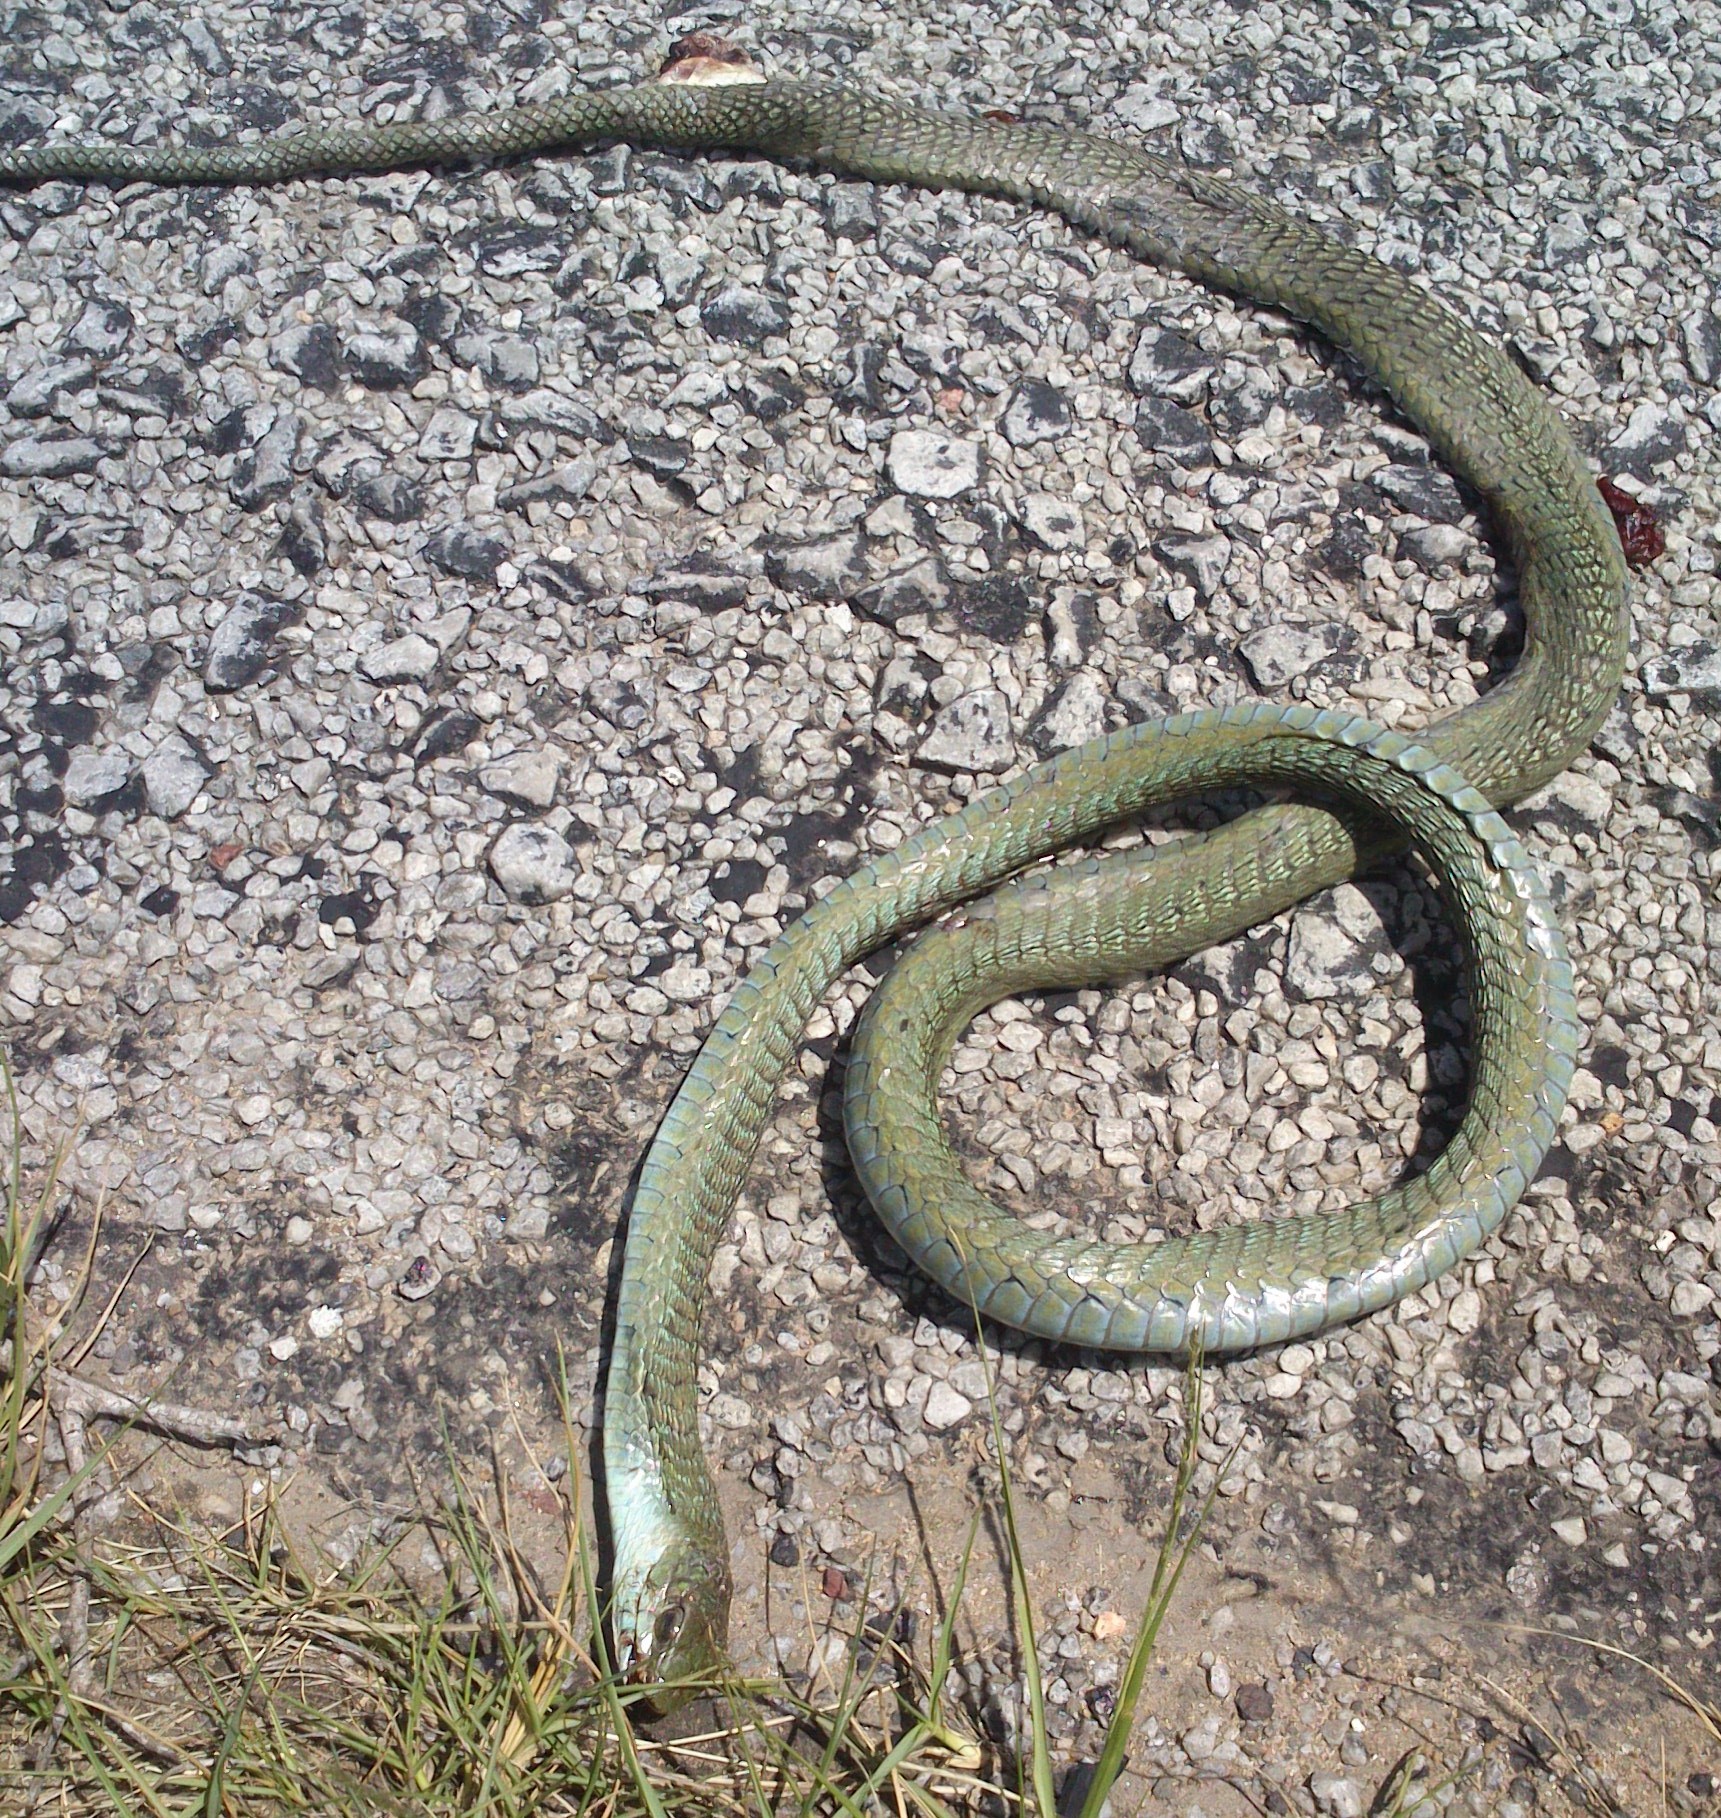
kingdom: Animalia
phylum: Chordata
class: Squamata
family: Colubridae
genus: Dispholidus
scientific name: Dispholidus typus
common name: Boomslang
